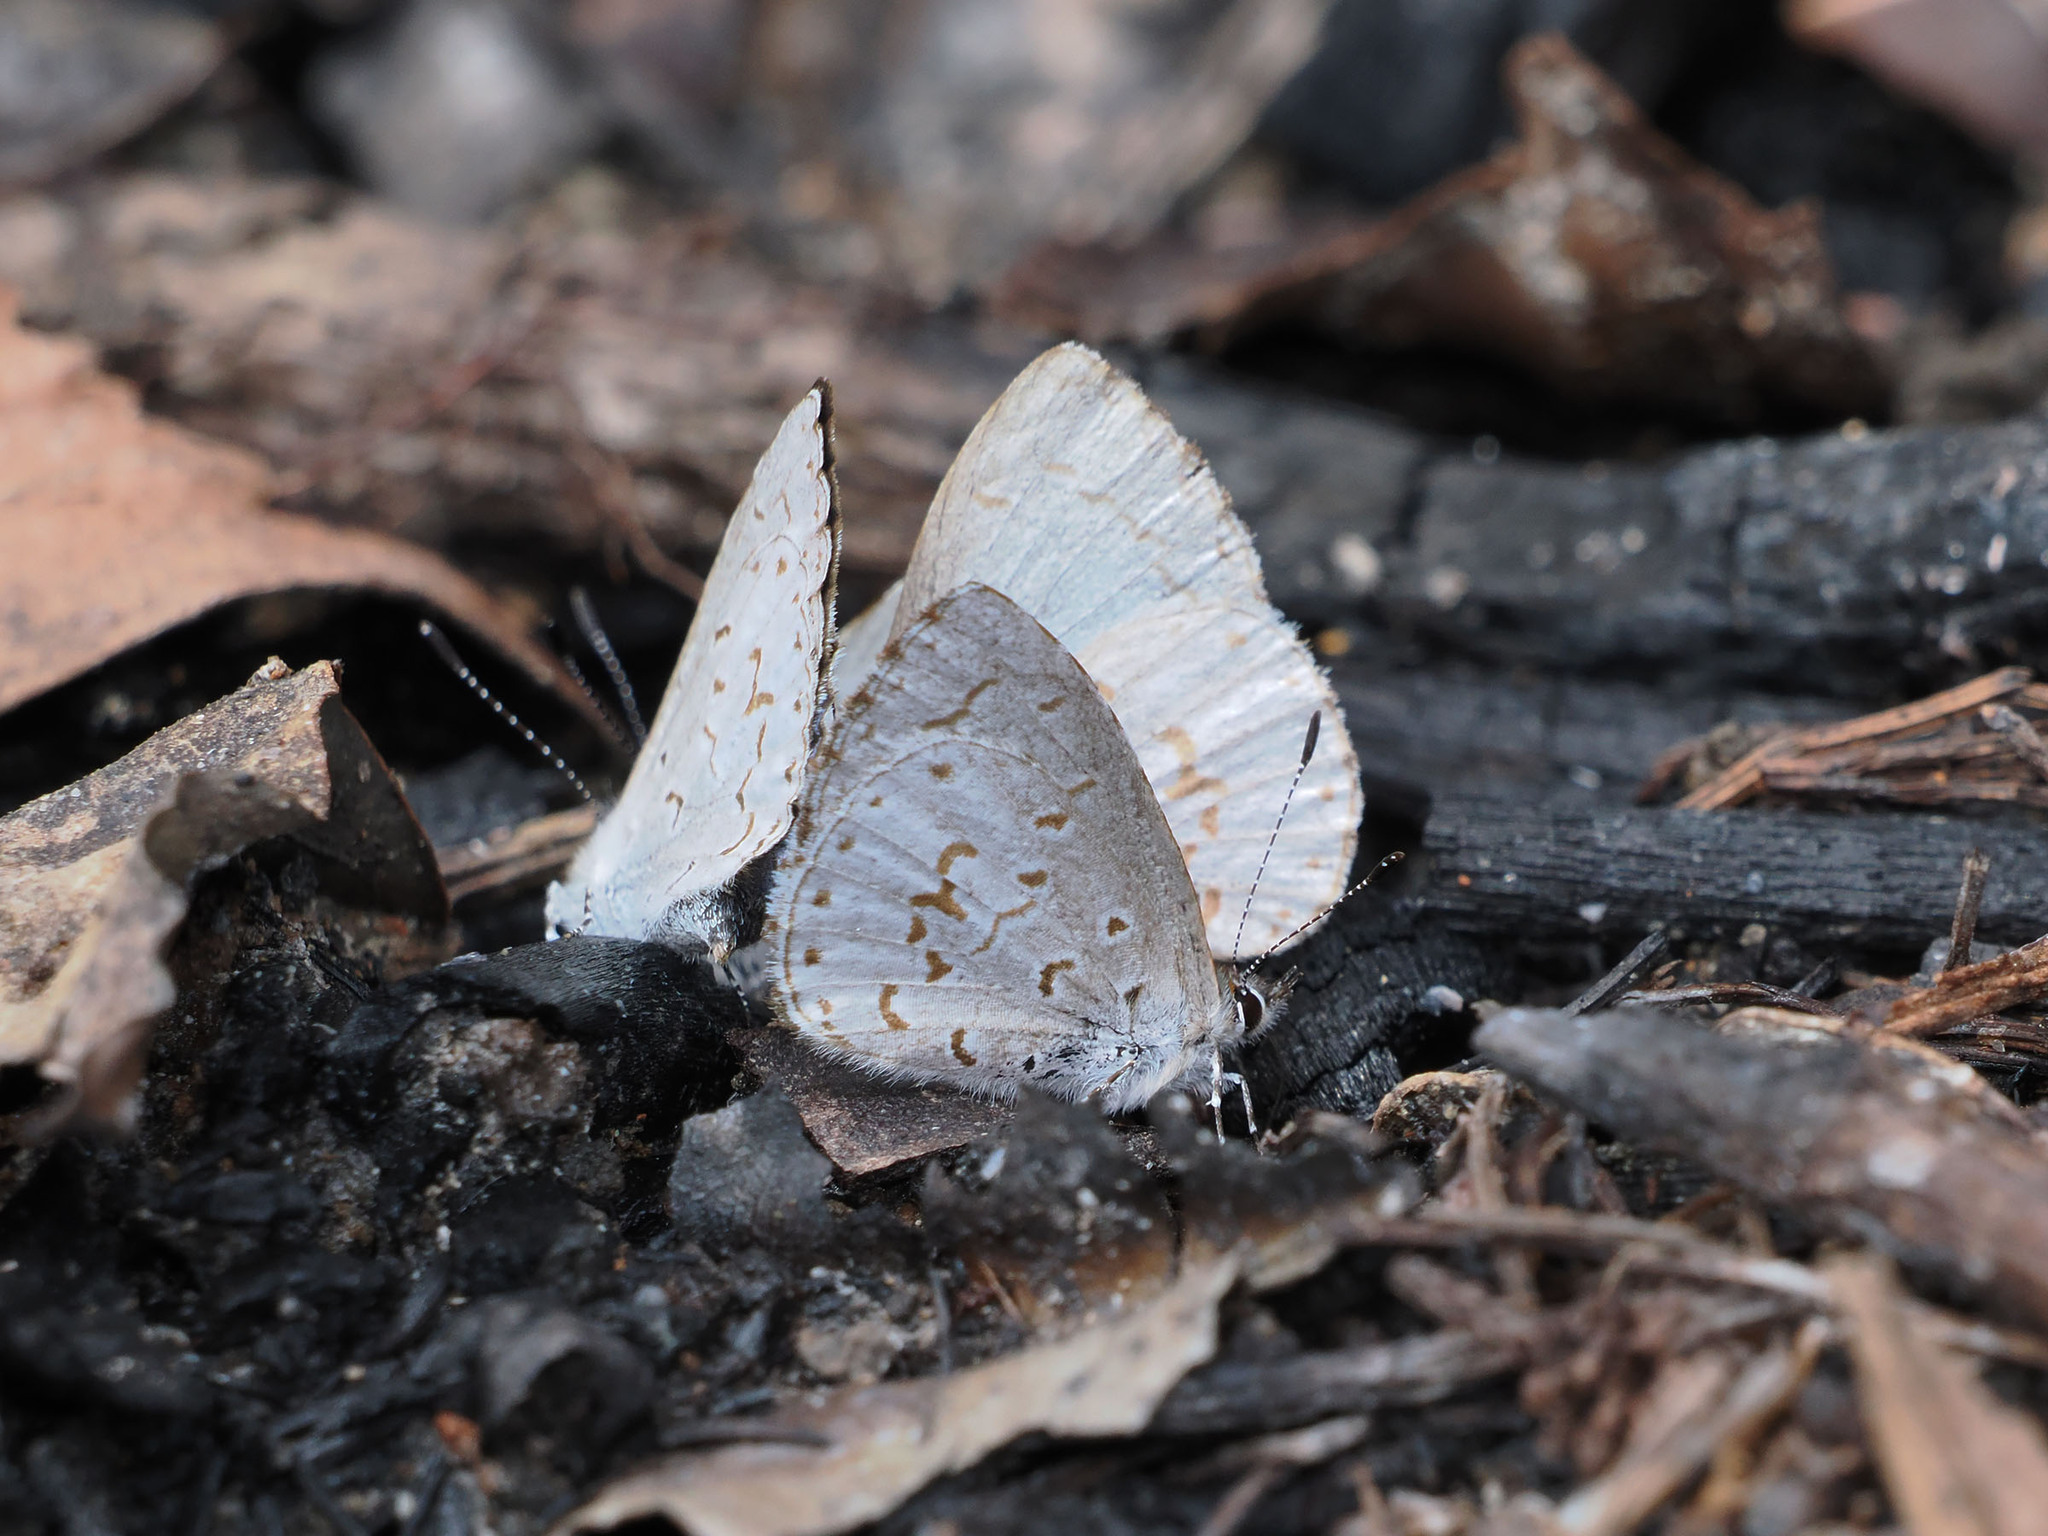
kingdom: Animalia
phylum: Arthropoda
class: Insecta
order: Lepidoptera
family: Lycaenidae
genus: Udara
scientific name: Udara drucei
